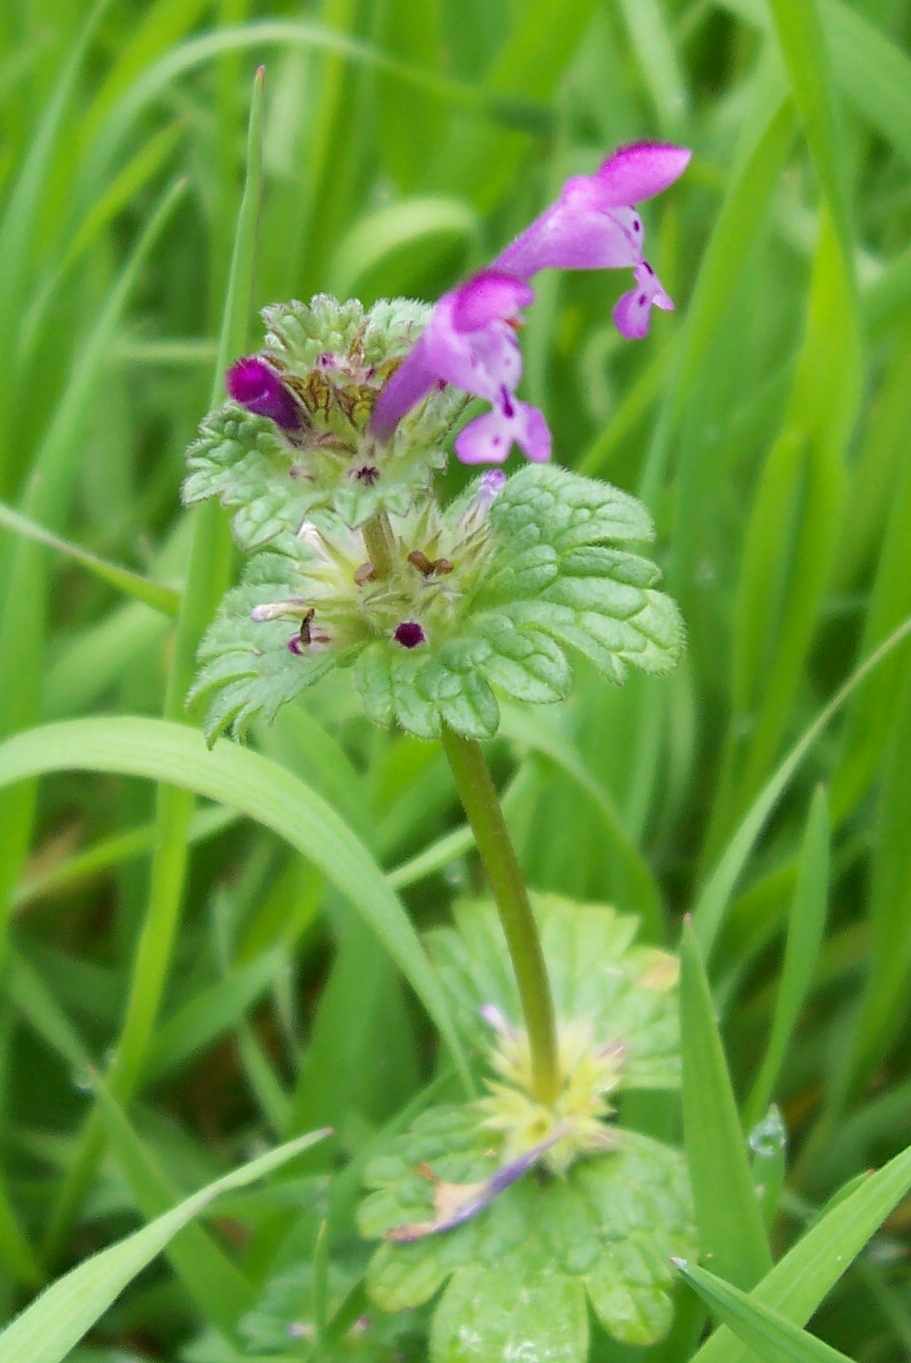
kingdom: Plantae
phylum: Tracheophyta
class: Magnoliopsida
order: Lamiales
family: Lamiaceae
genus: Lamium
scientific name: Lamium amplexicaule
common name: Henbit dead-nettle
